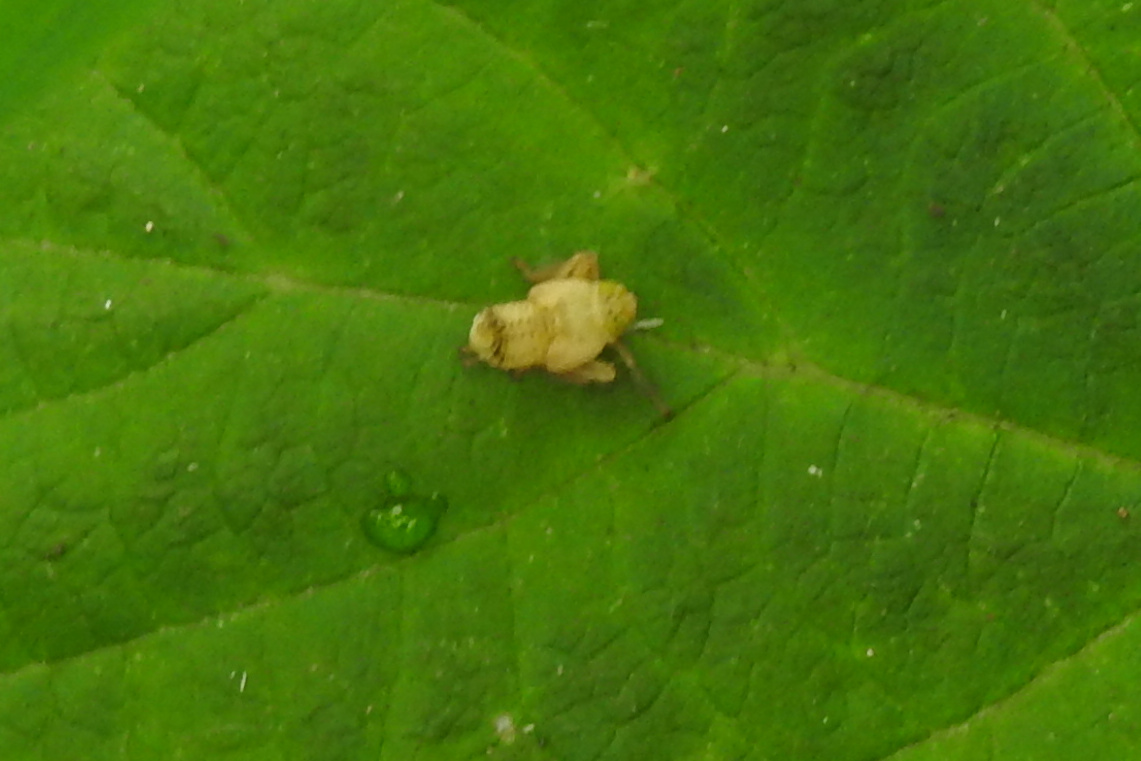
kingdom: Animalia
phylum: Arthropoda
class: Insecta
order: Hemiptera
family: Cicadellidae
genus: Jikradia
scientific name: Jikradia olitoria
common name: Coppery leafhopper
